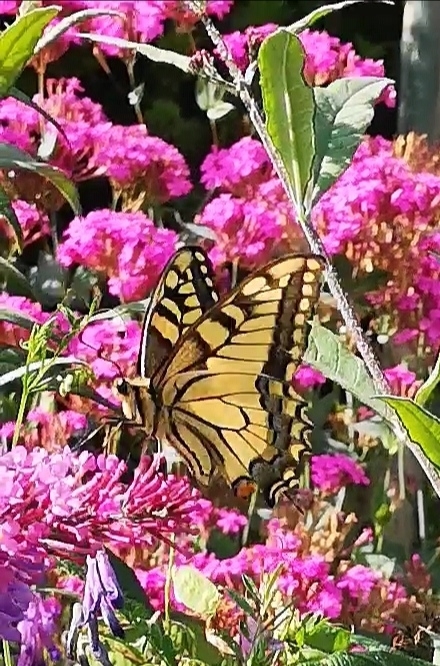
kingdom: Animalia
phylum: Arthropoda
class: Insecta
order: Lepidoptera
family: Papilionidae
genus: Papilio
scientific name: Papilio machaon
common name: Swallowtail
